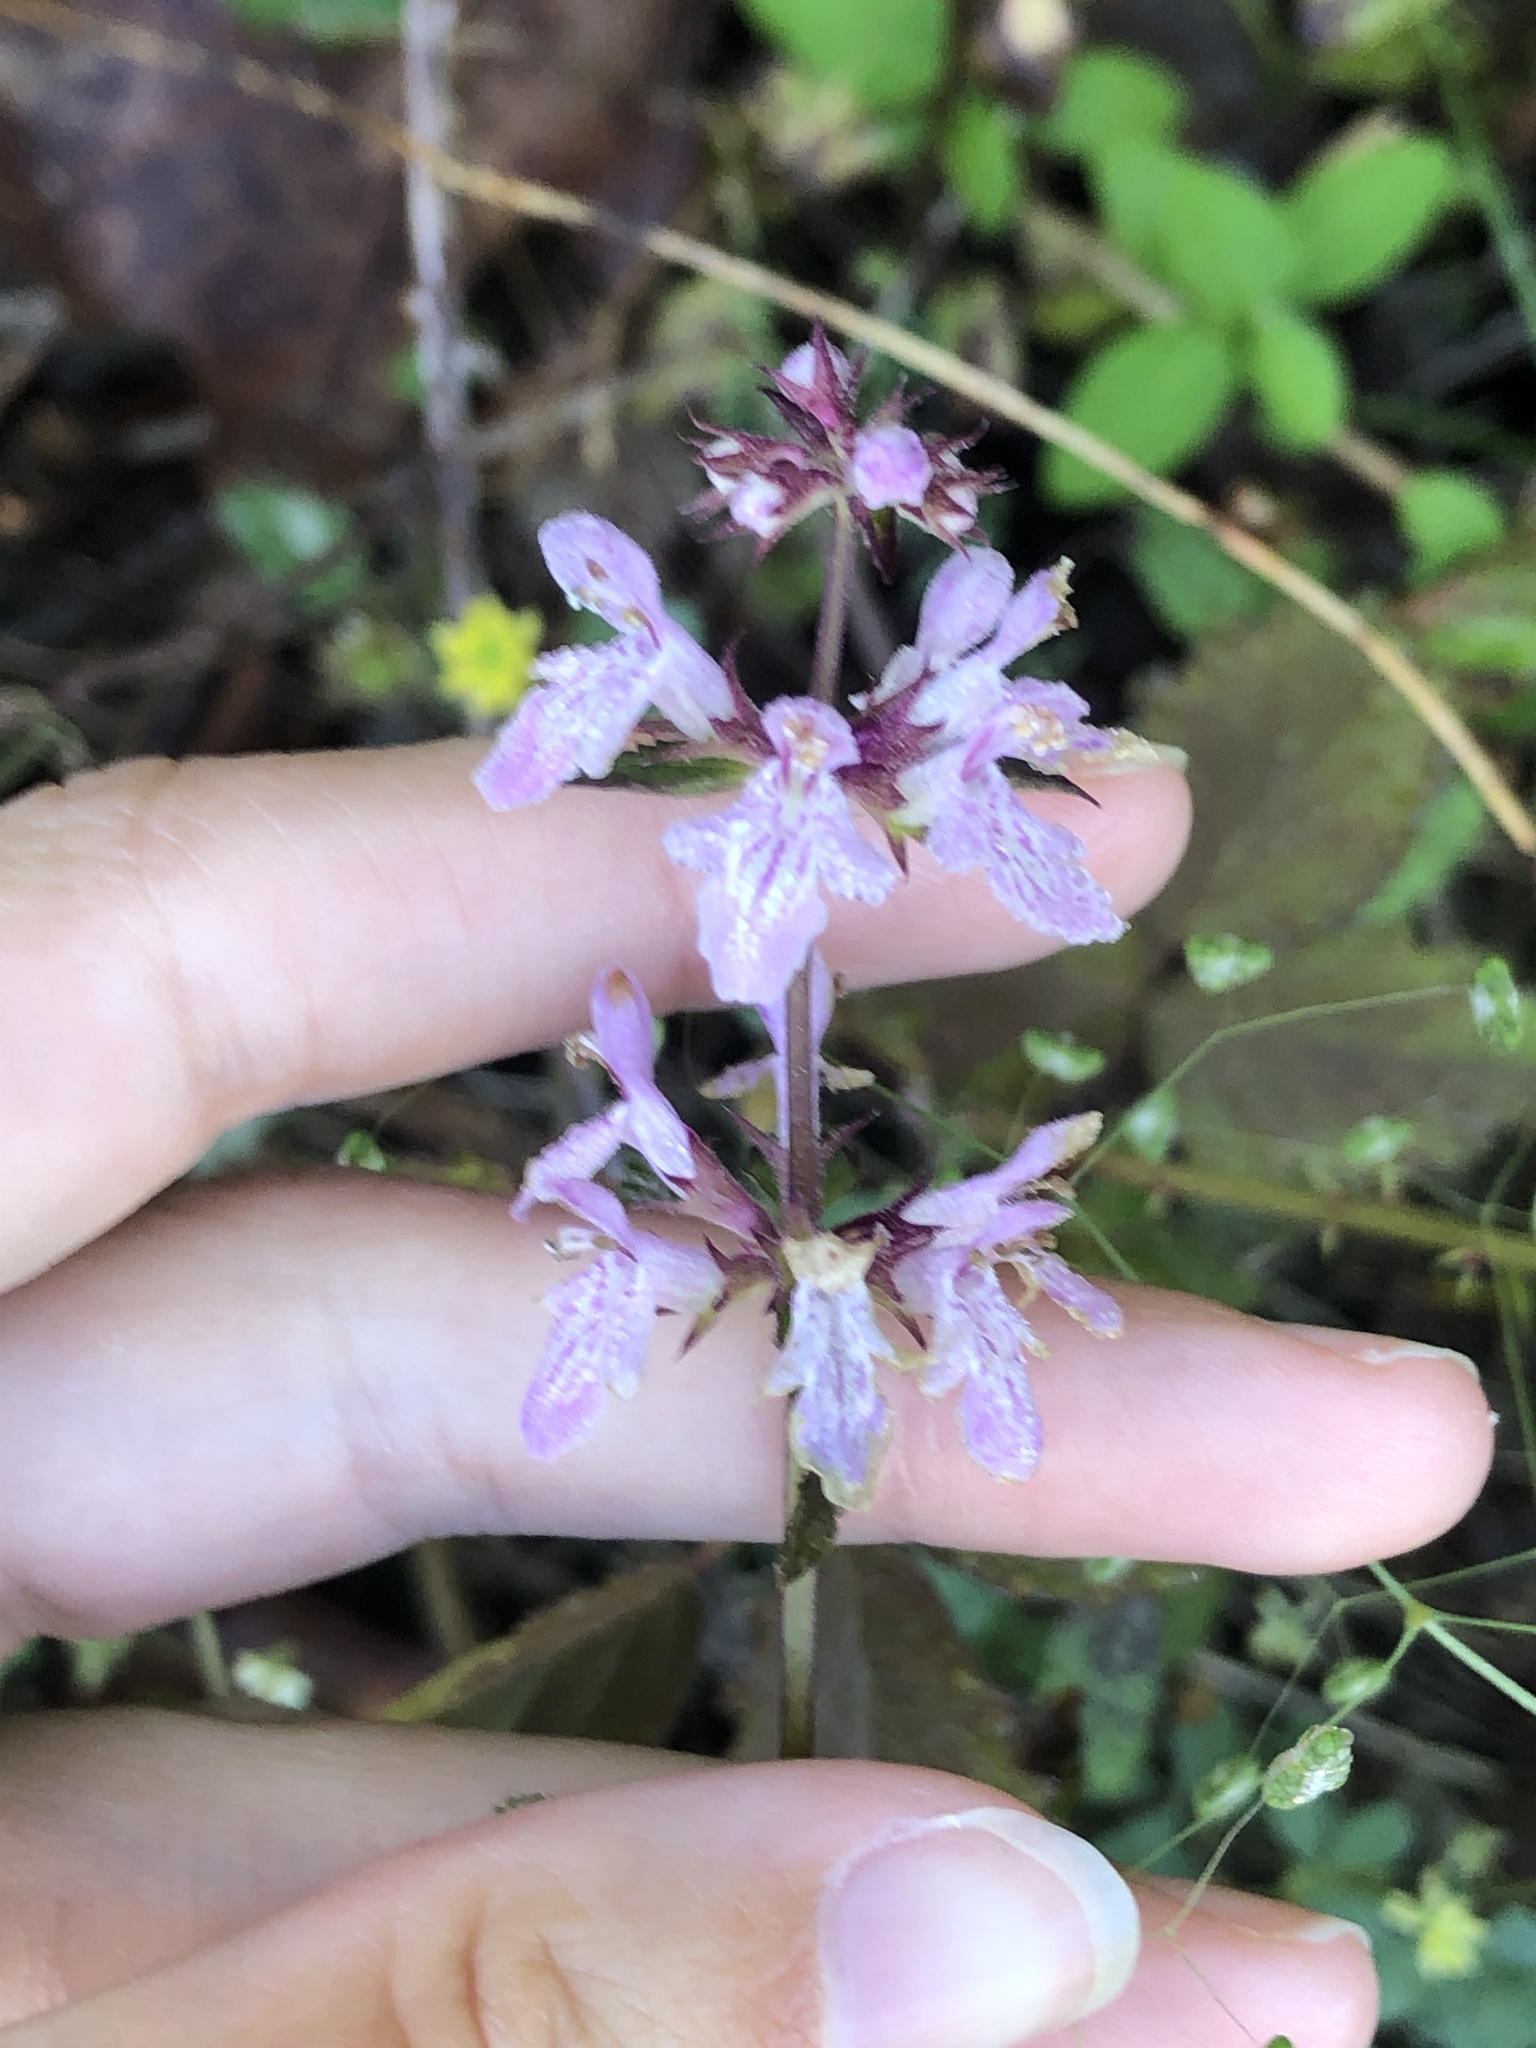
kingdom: Plantae
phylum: Tracheophyta
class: Magnoliopsida
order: Lamiales
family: Lamiaceae
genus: Stachys
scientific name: Stachys floridana
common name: Florida betony
